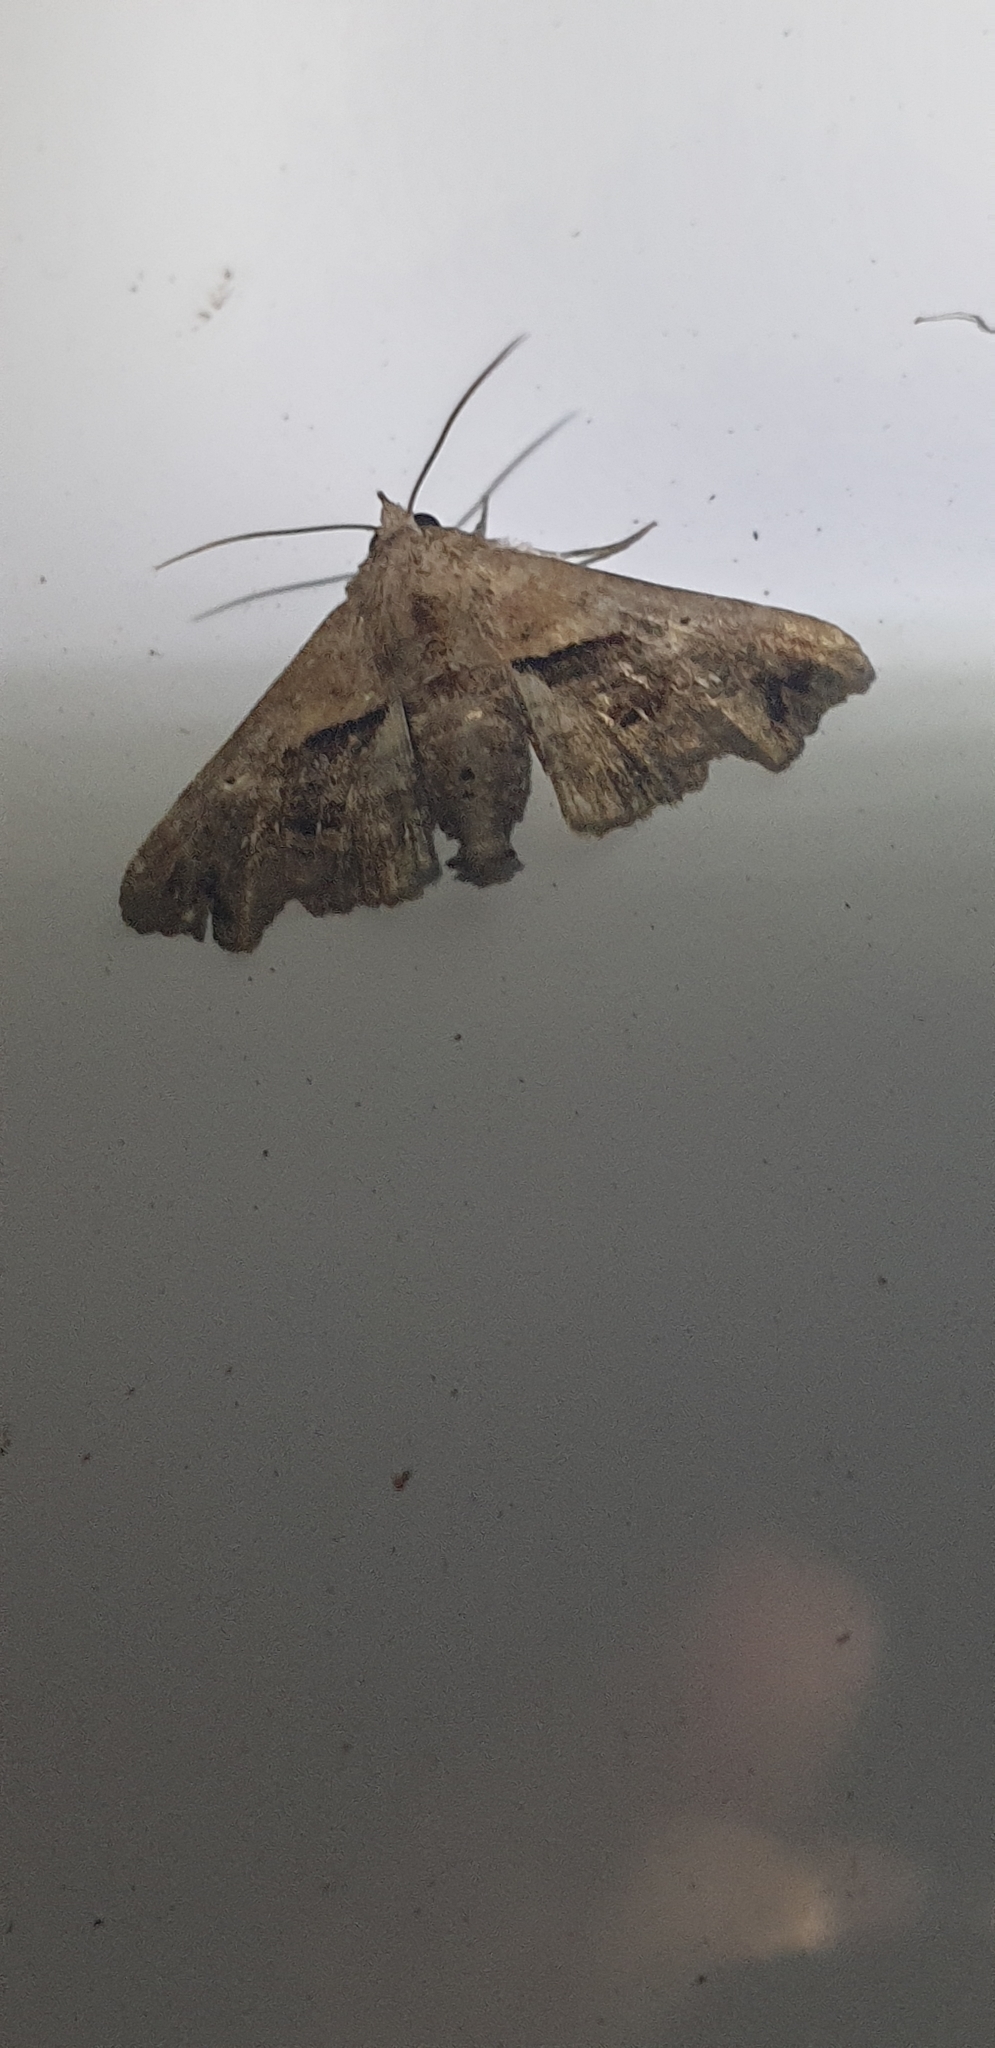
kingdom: Animalia
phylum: Arthropoda
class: Insecta
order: Lepidoptera
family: Euteliidae
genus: Targalla
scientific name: Targalla plumbea
